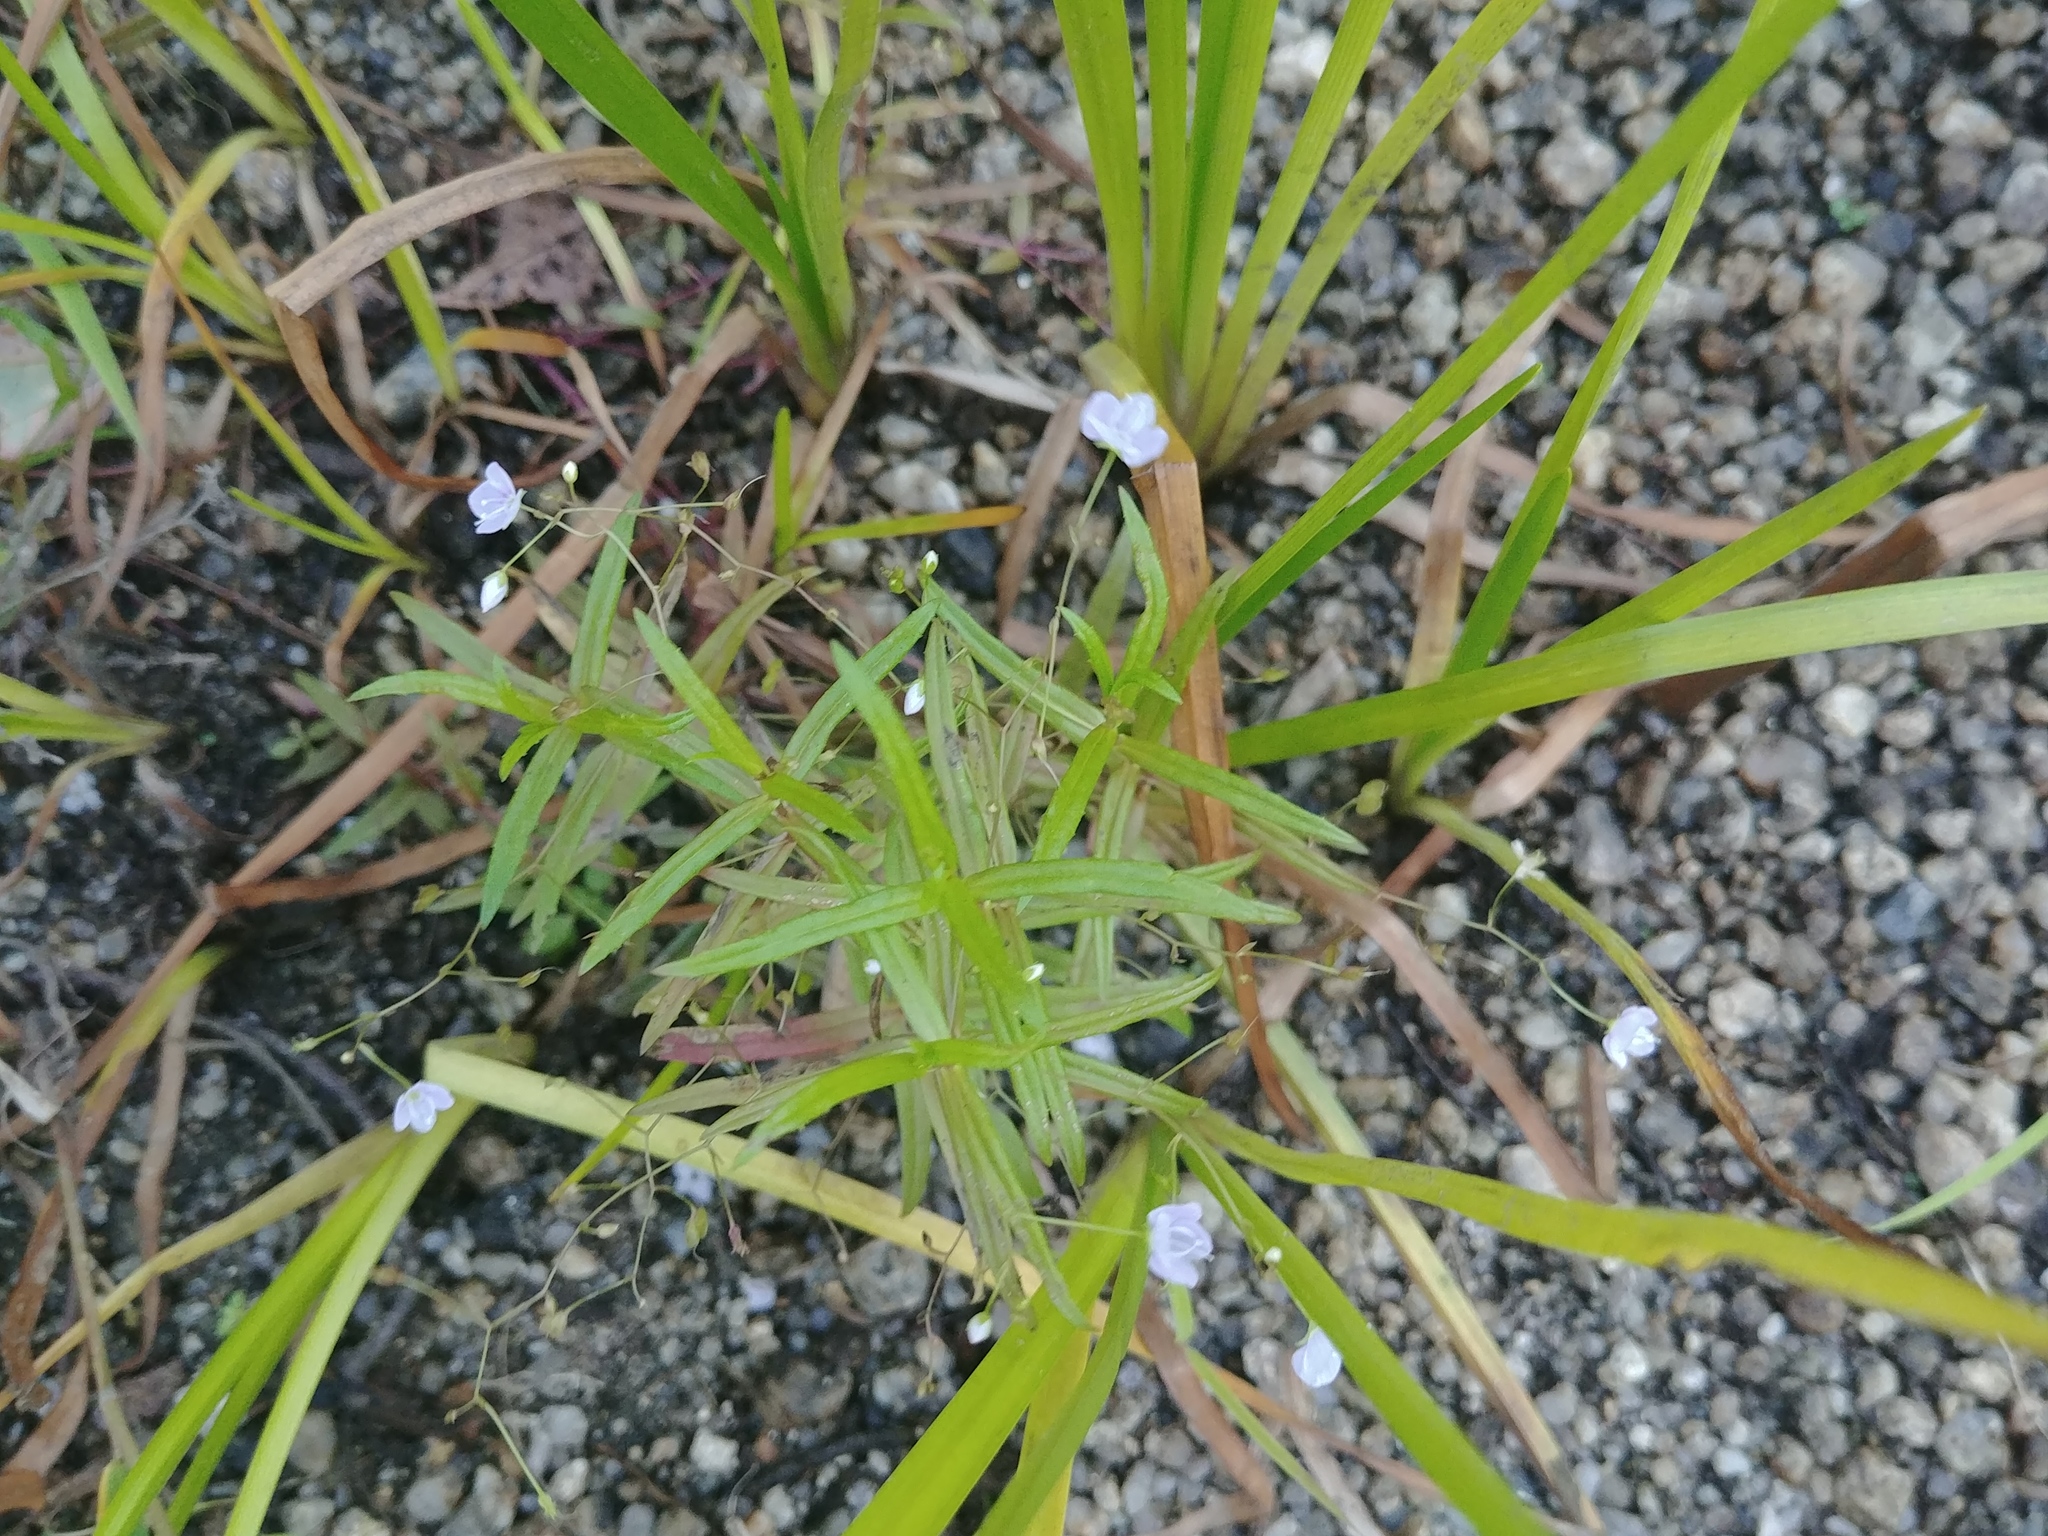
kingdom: Plantae
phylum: Tracheophyta
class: Magnoliopsida
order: Lamiales
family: Plantaginaceae
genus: Veronica
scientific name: Veronica scutellata
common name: Marsh speedwell
